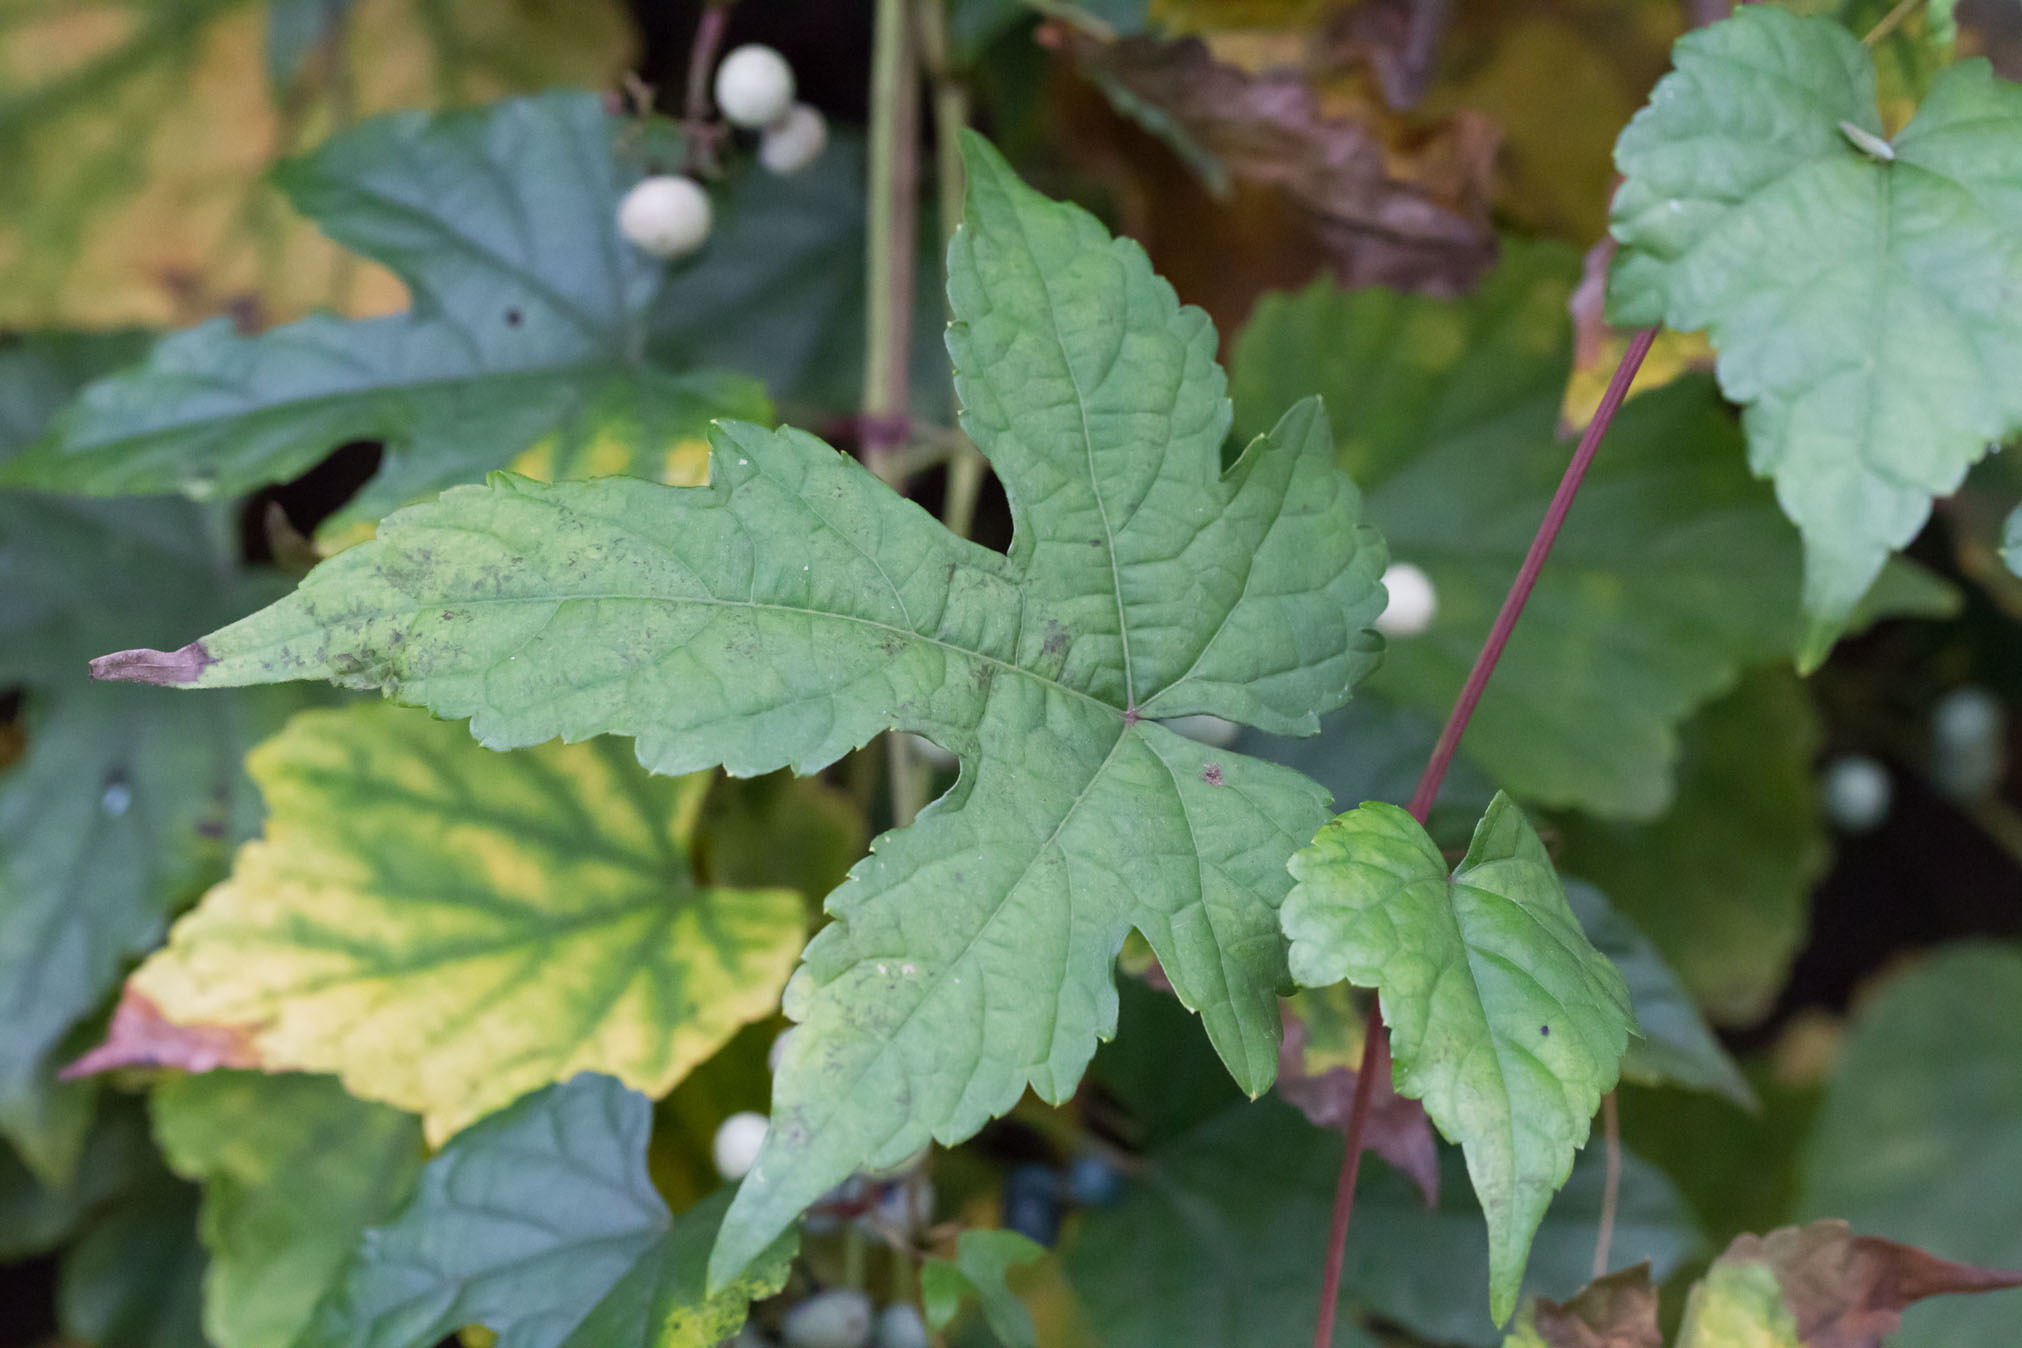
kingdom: Plantae
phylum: Tracheophyta
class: Magnoliopsida
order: Vitales
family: Vitaceae
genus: Ampelopsis
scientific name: Ampelopsis glandulosa
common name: Amur peppervine
